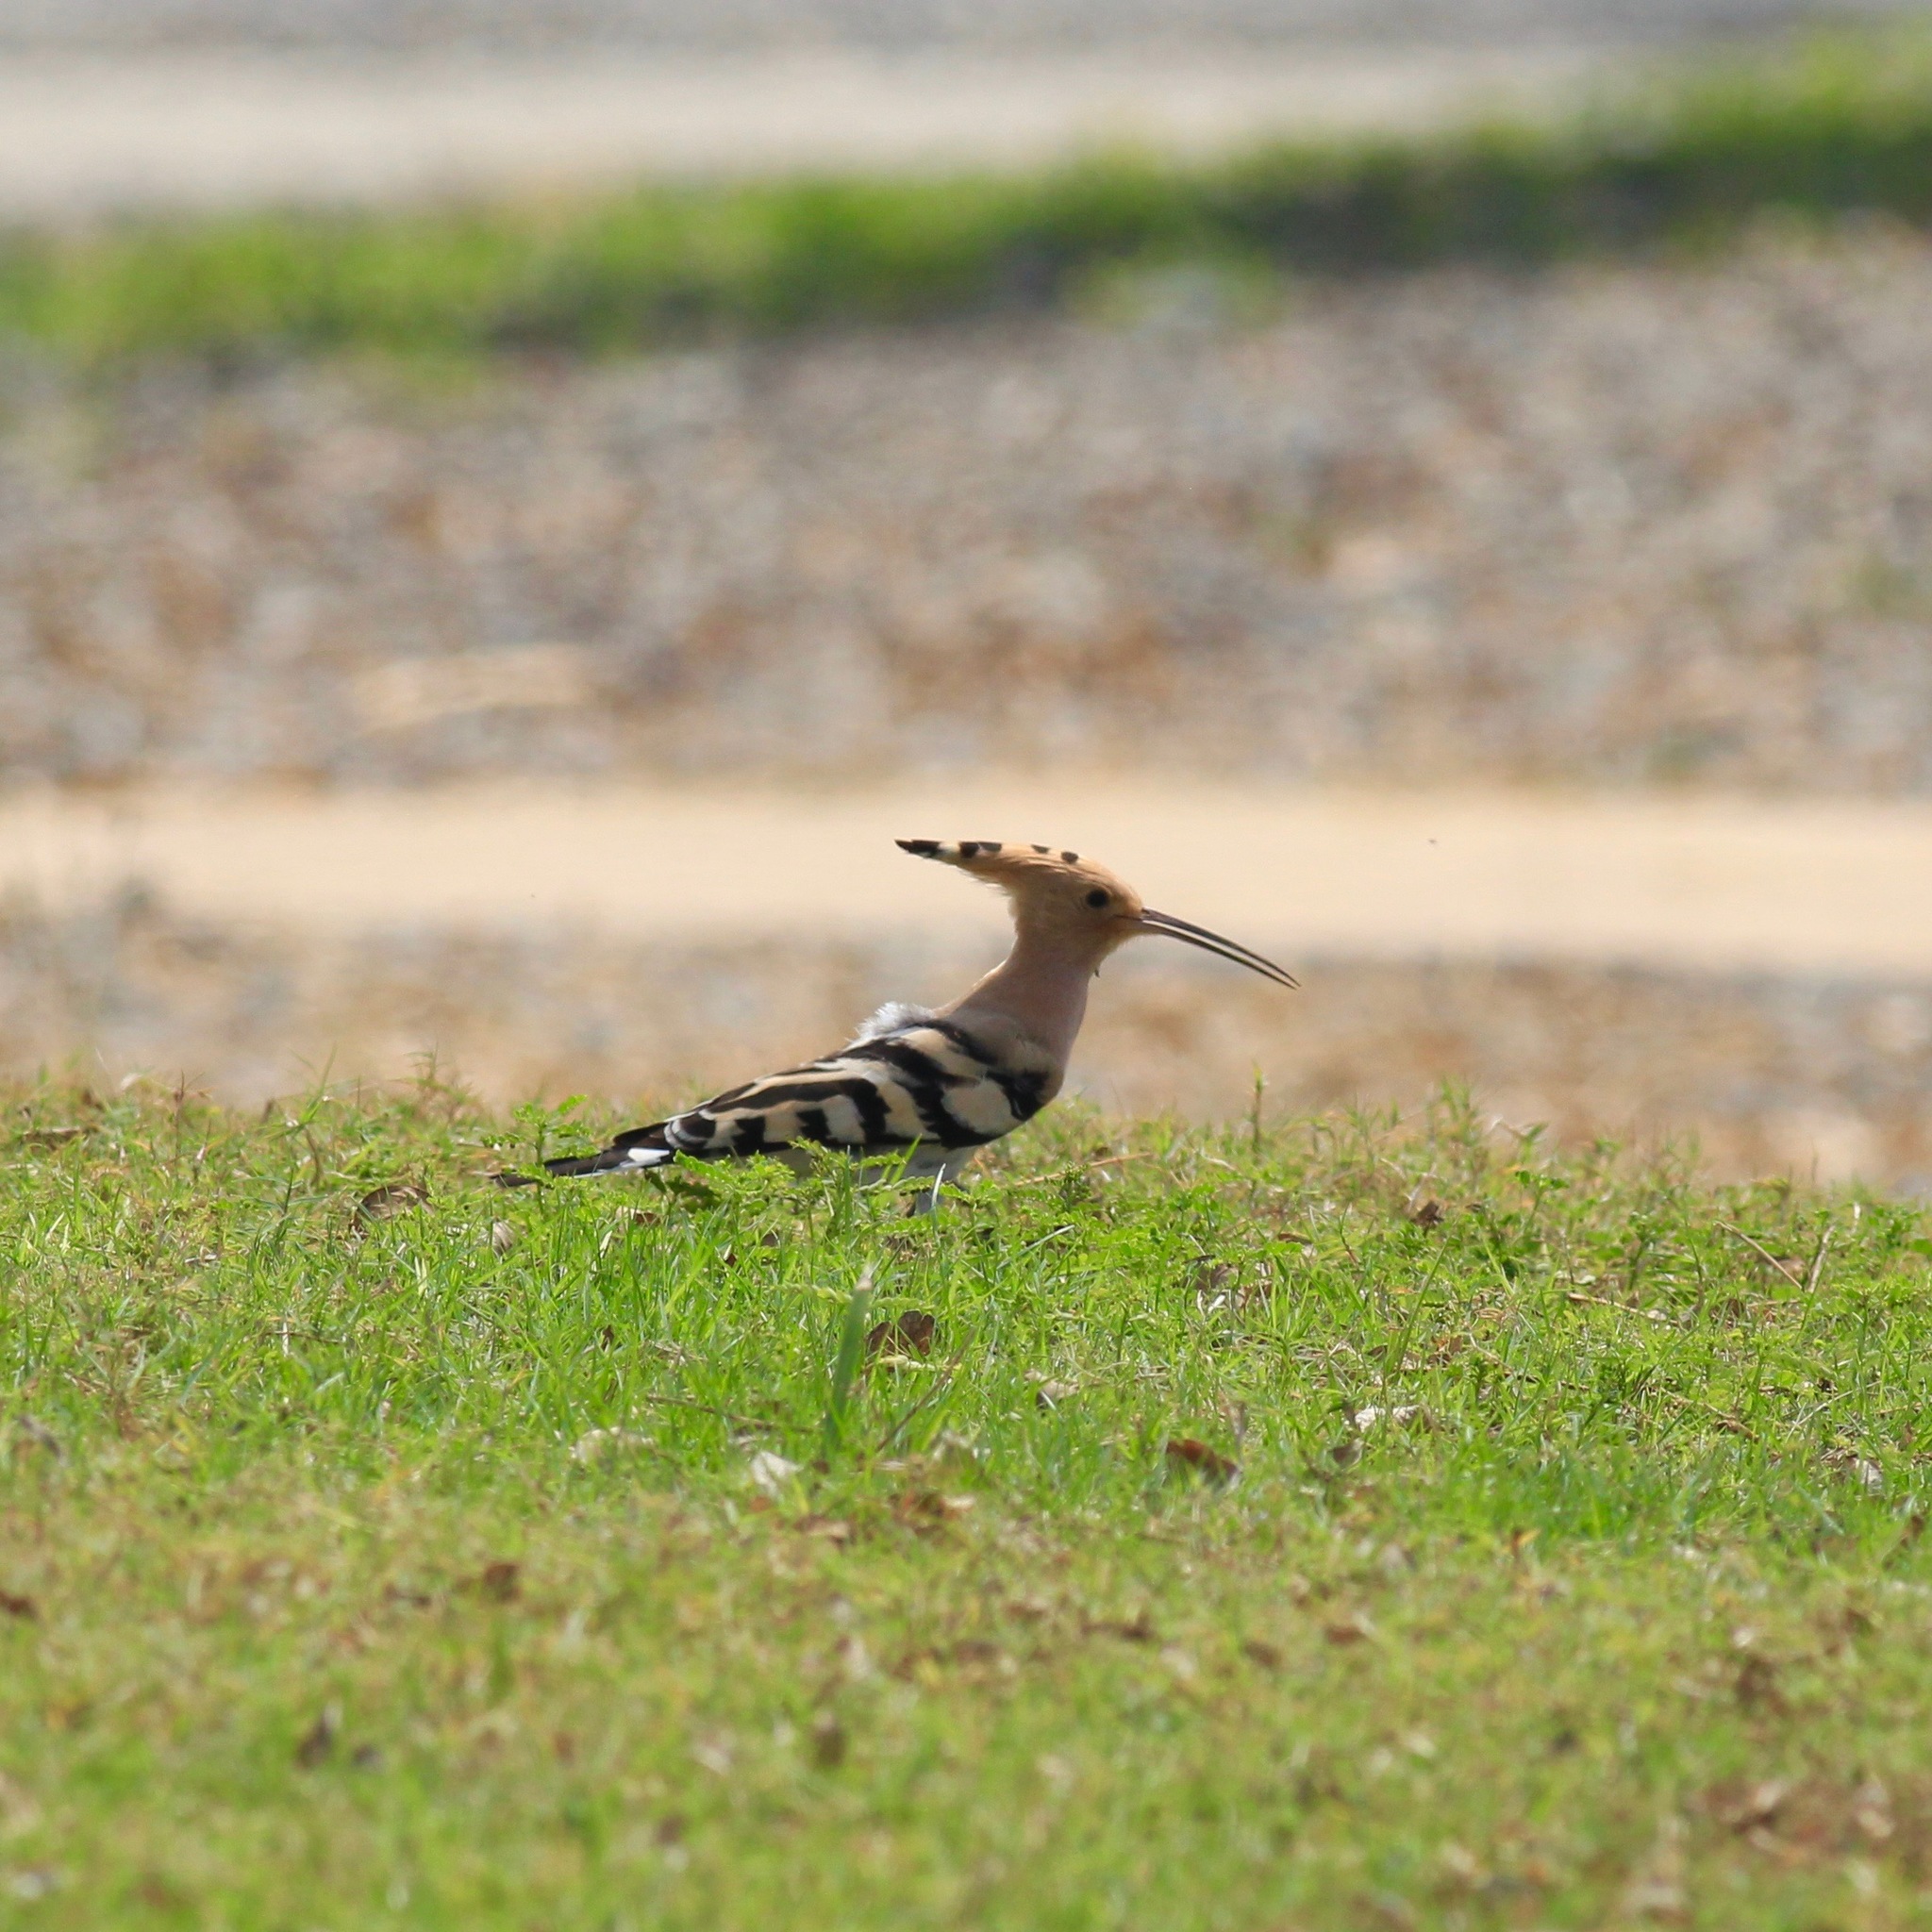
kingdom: Animalia
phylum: Chordata
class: Aves
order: Bucerotiformes
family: Upupidae
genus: Upupa
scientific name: Upupa epops
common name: Eurasian hoopoe
